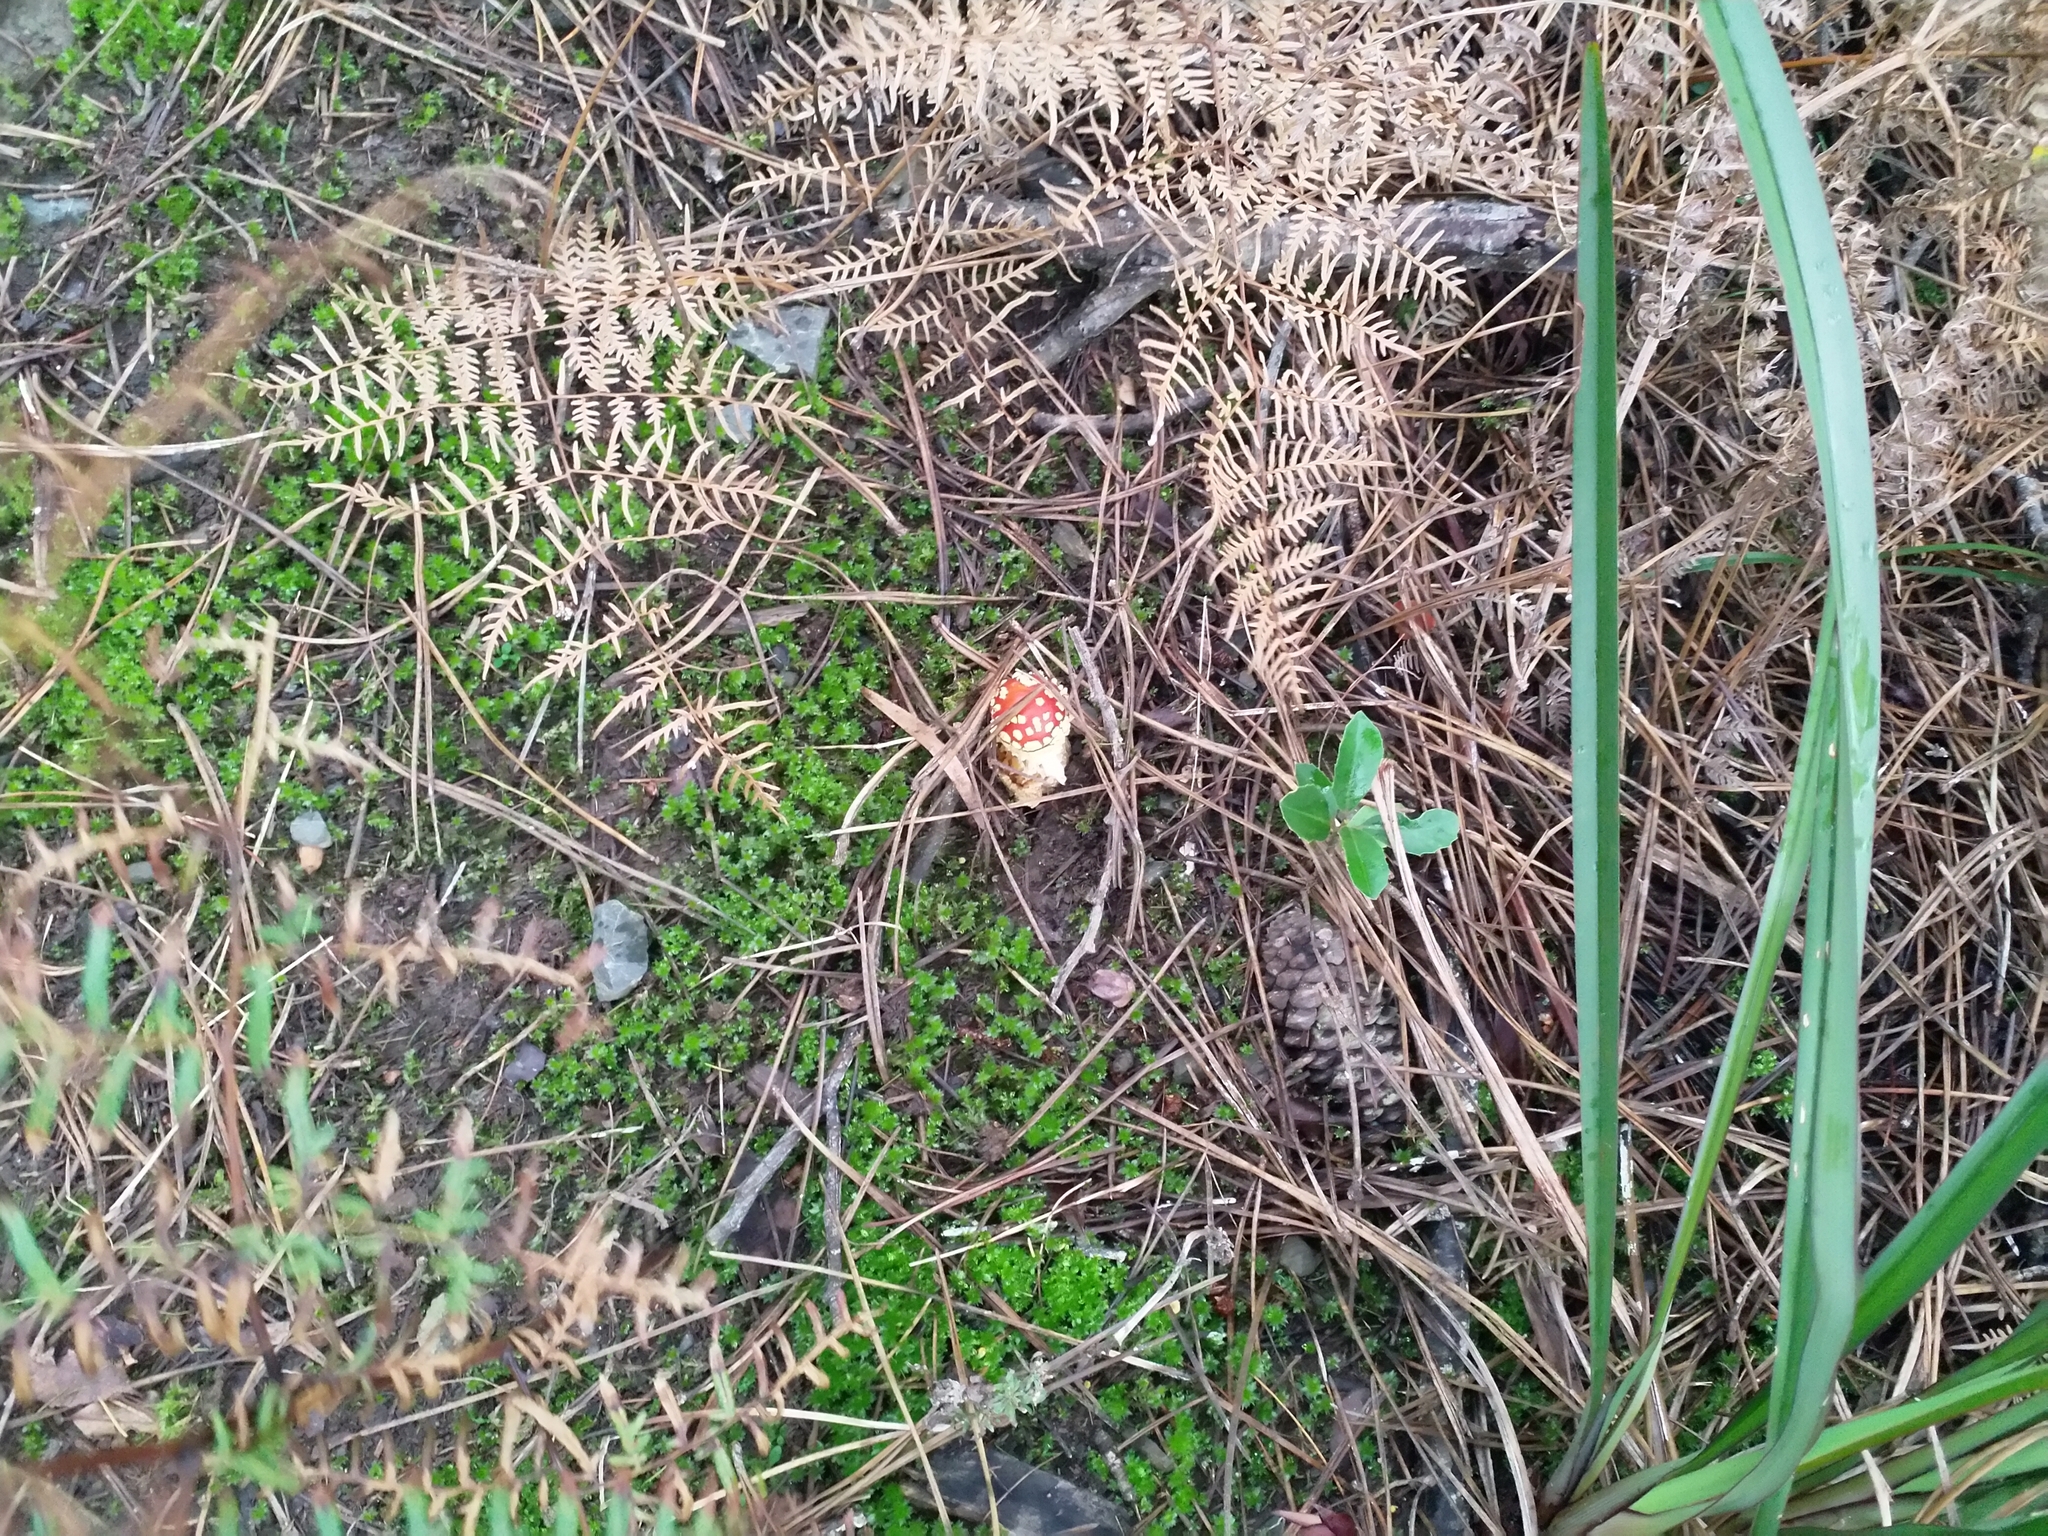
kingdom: Fungi
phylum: Basidiomycota
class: Agaricomycetes
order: Agaricales
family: Amanitaceae
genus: Amanita
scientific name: Amanita muscaria
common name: Fly agaric
